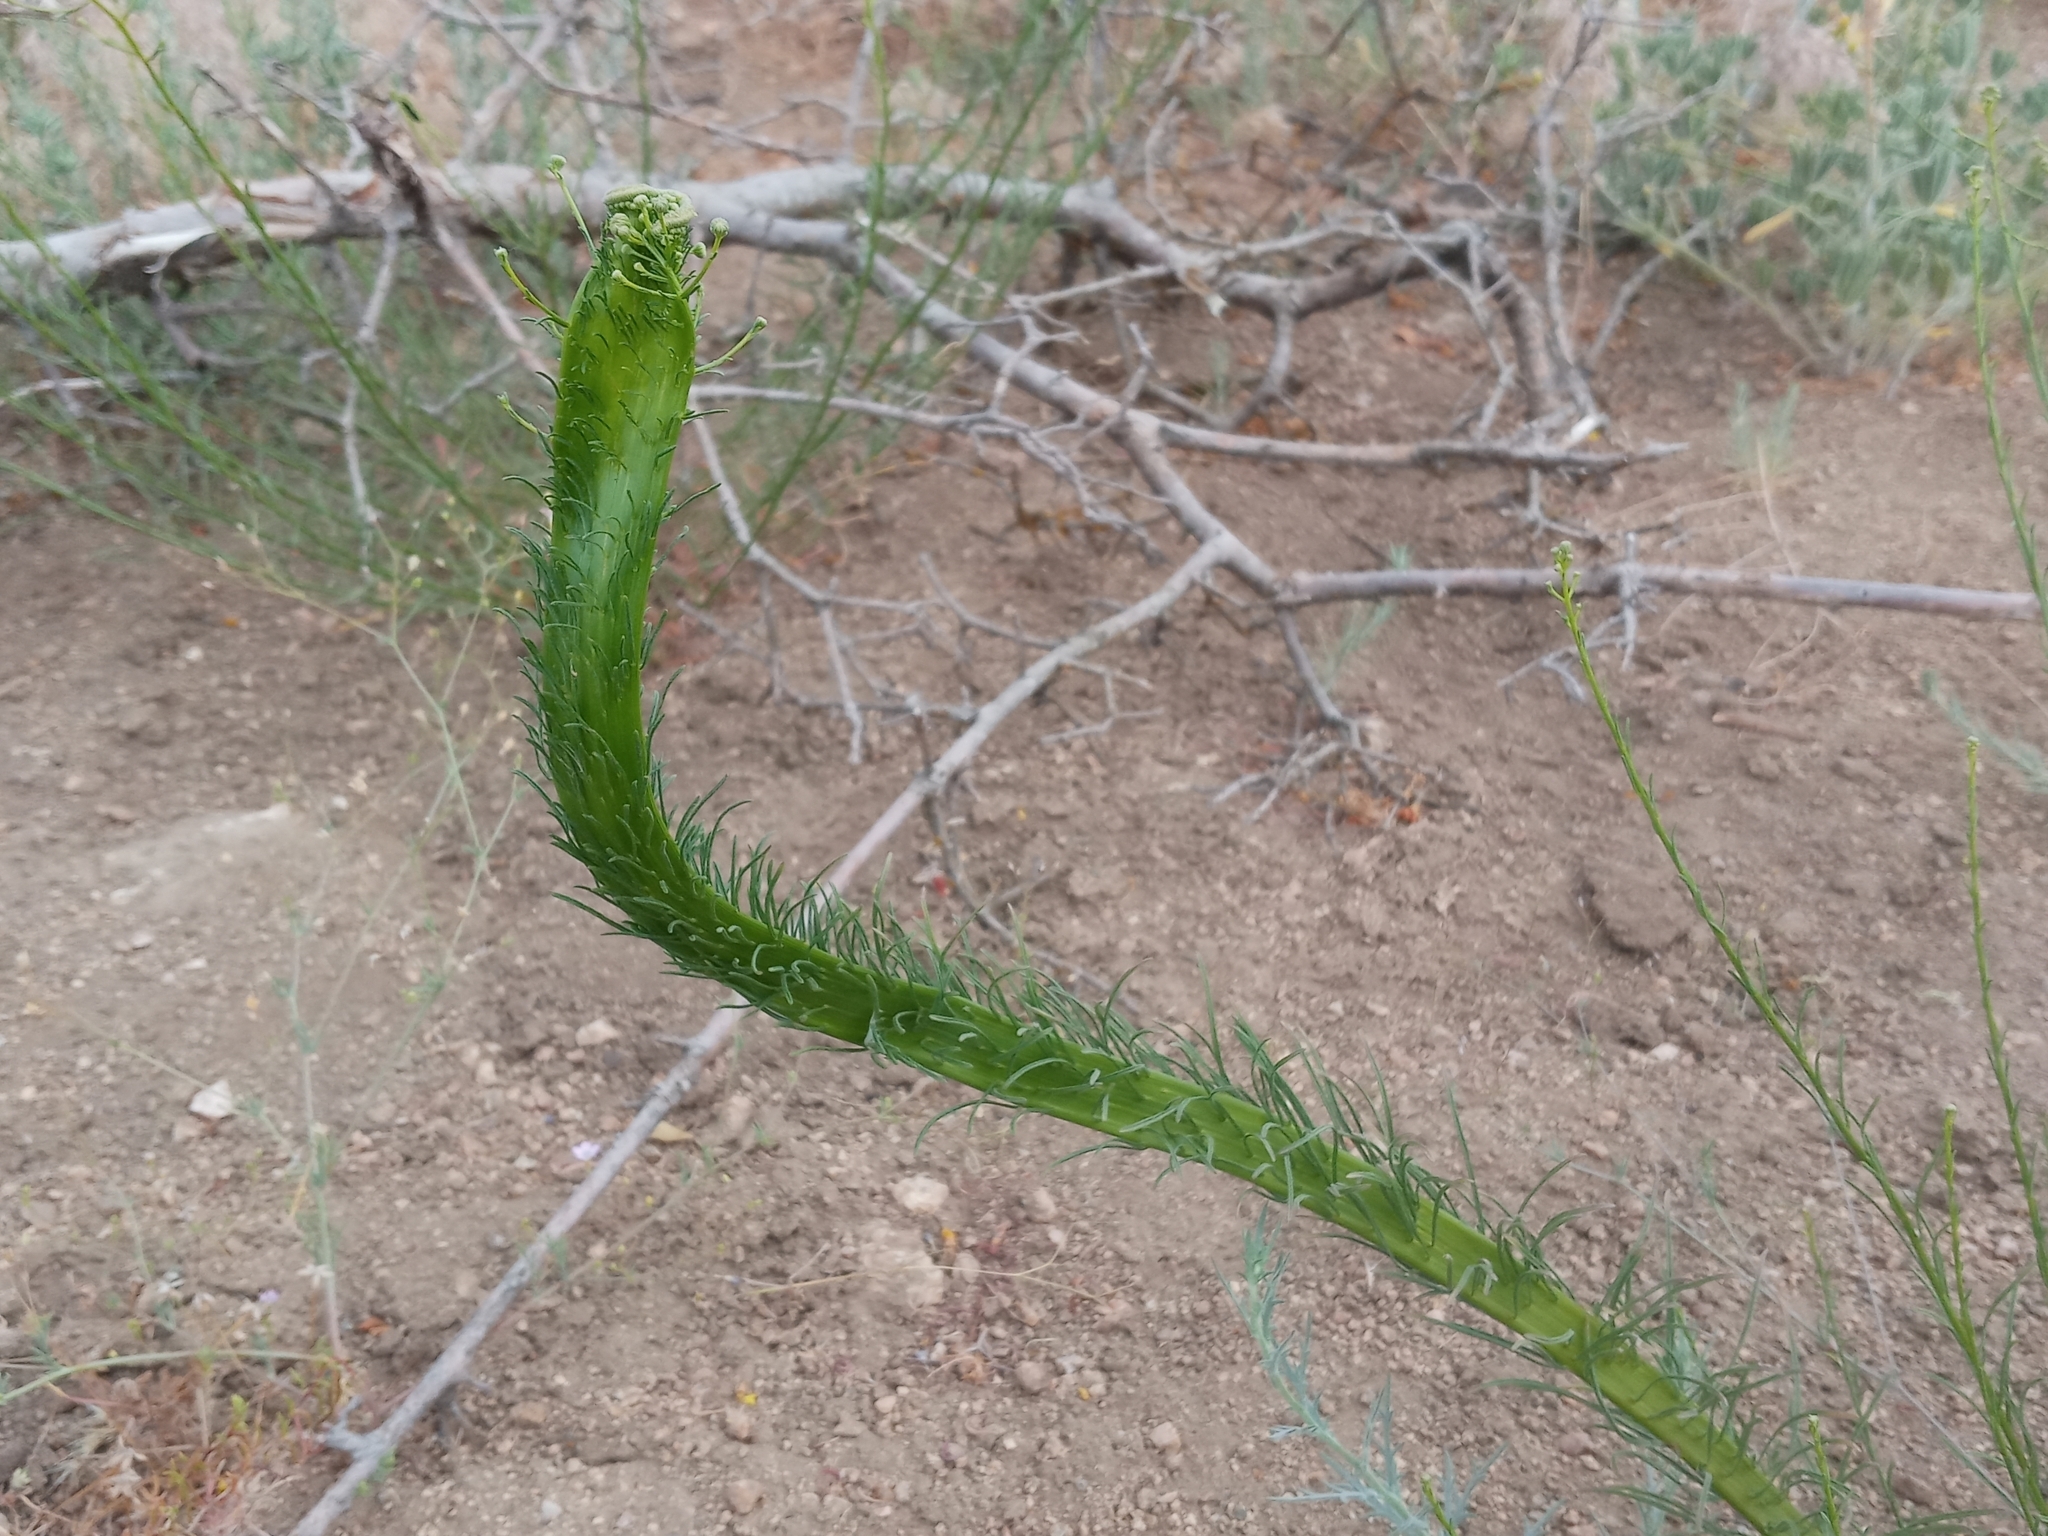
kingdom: Plantae
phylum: Tracheophyta
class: Magnoliopsida
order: Asterales
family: Asteraceae
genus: Erigeron
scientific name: Erigeron foliosus
